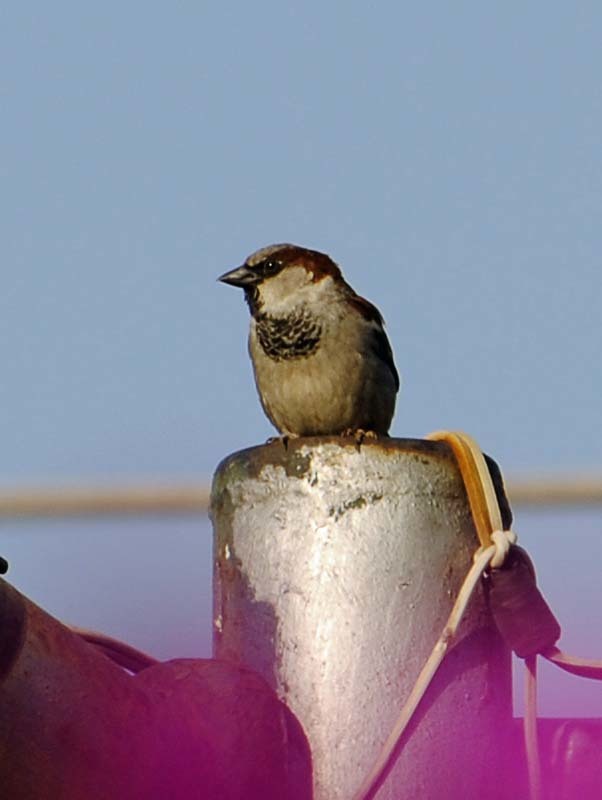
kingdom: Animalia
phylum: Chordata
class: Aves
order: Passeriformes
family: Passeridae
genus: Passer
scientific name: Passer domesticus
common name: House sparrow
